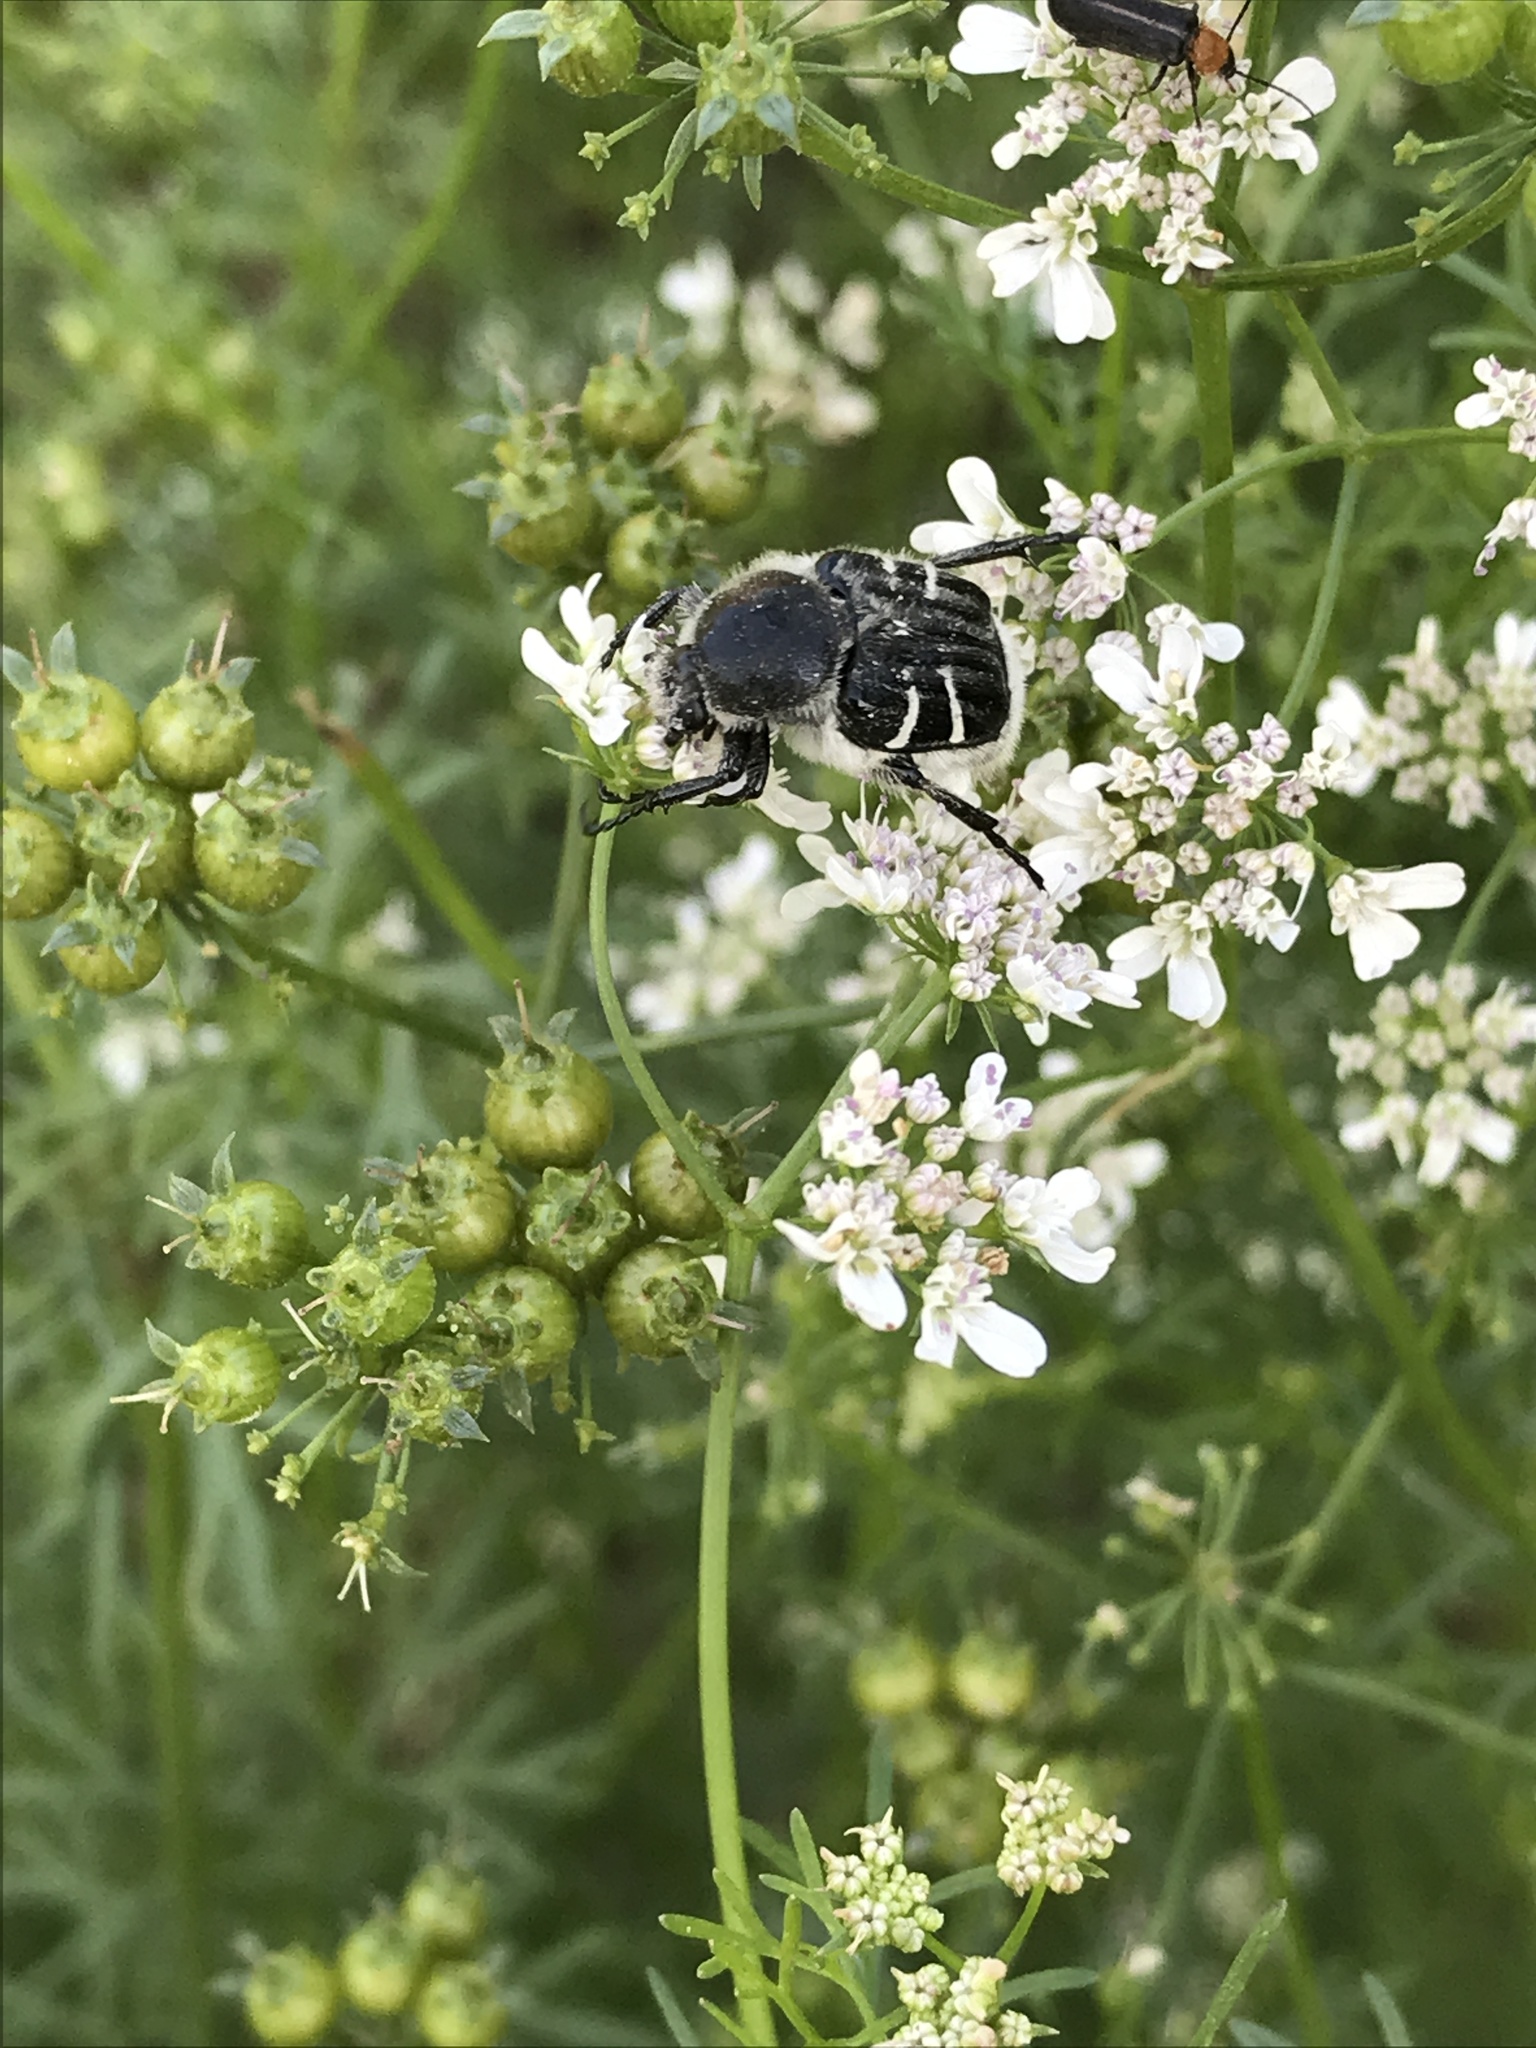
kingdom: Animalia
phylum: Arthropoda
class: Insecta
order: Coleoptera
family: Scarabaeidae
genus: Trichiotinus
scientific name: Trichiotinus texanus
